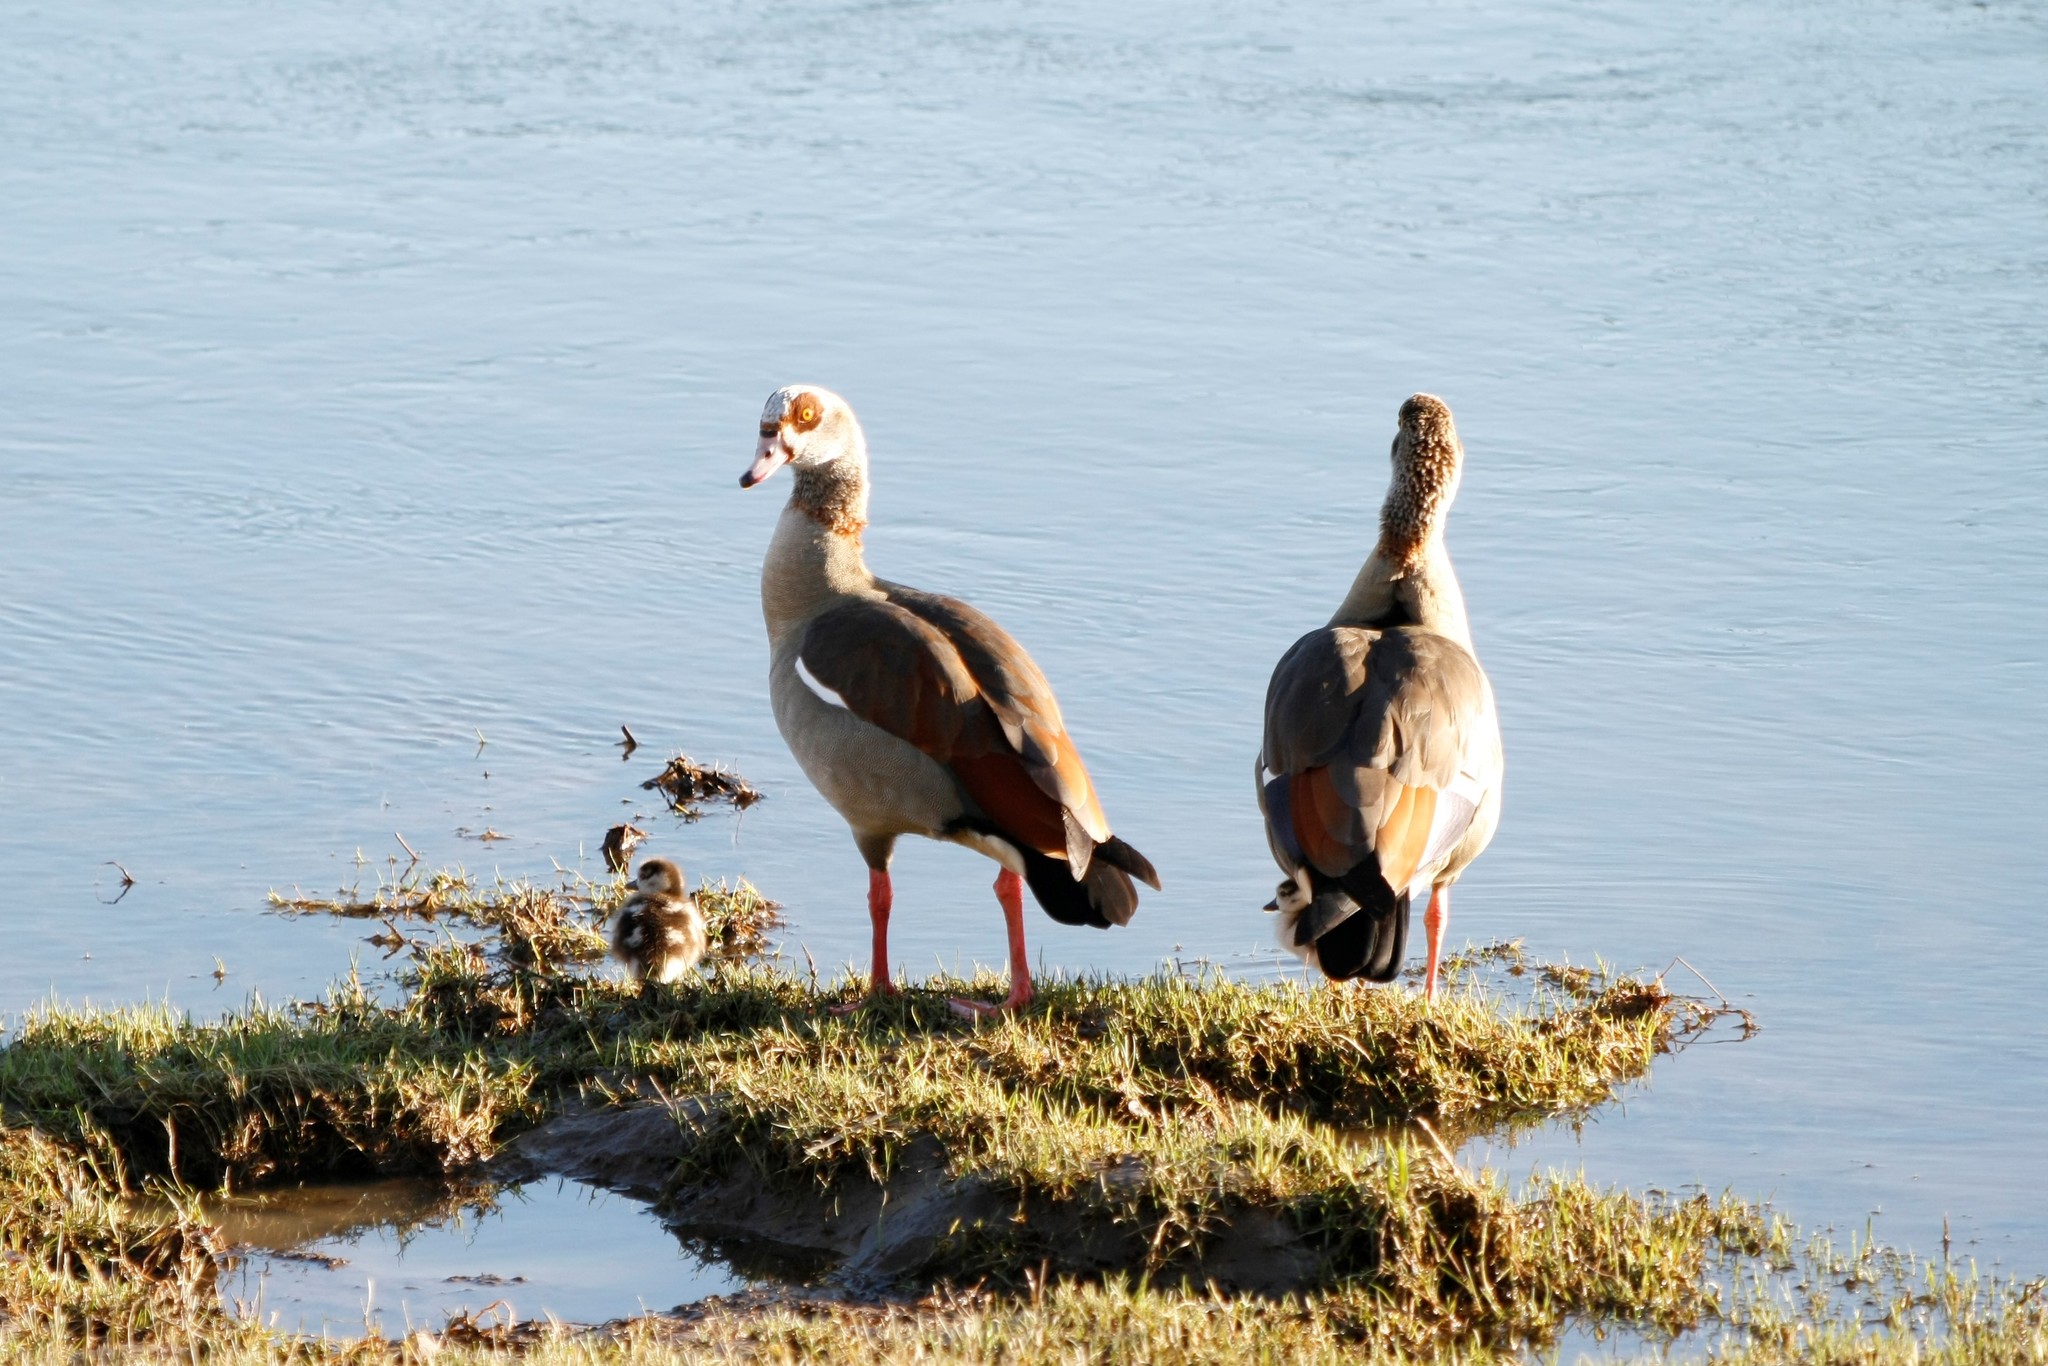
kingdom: Animalia
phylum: Chordata
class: Aves
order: Anseriformes
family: Anatidae
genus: Alopochen
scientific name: Alopochen aegyptiaca
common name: Egyptian goose
